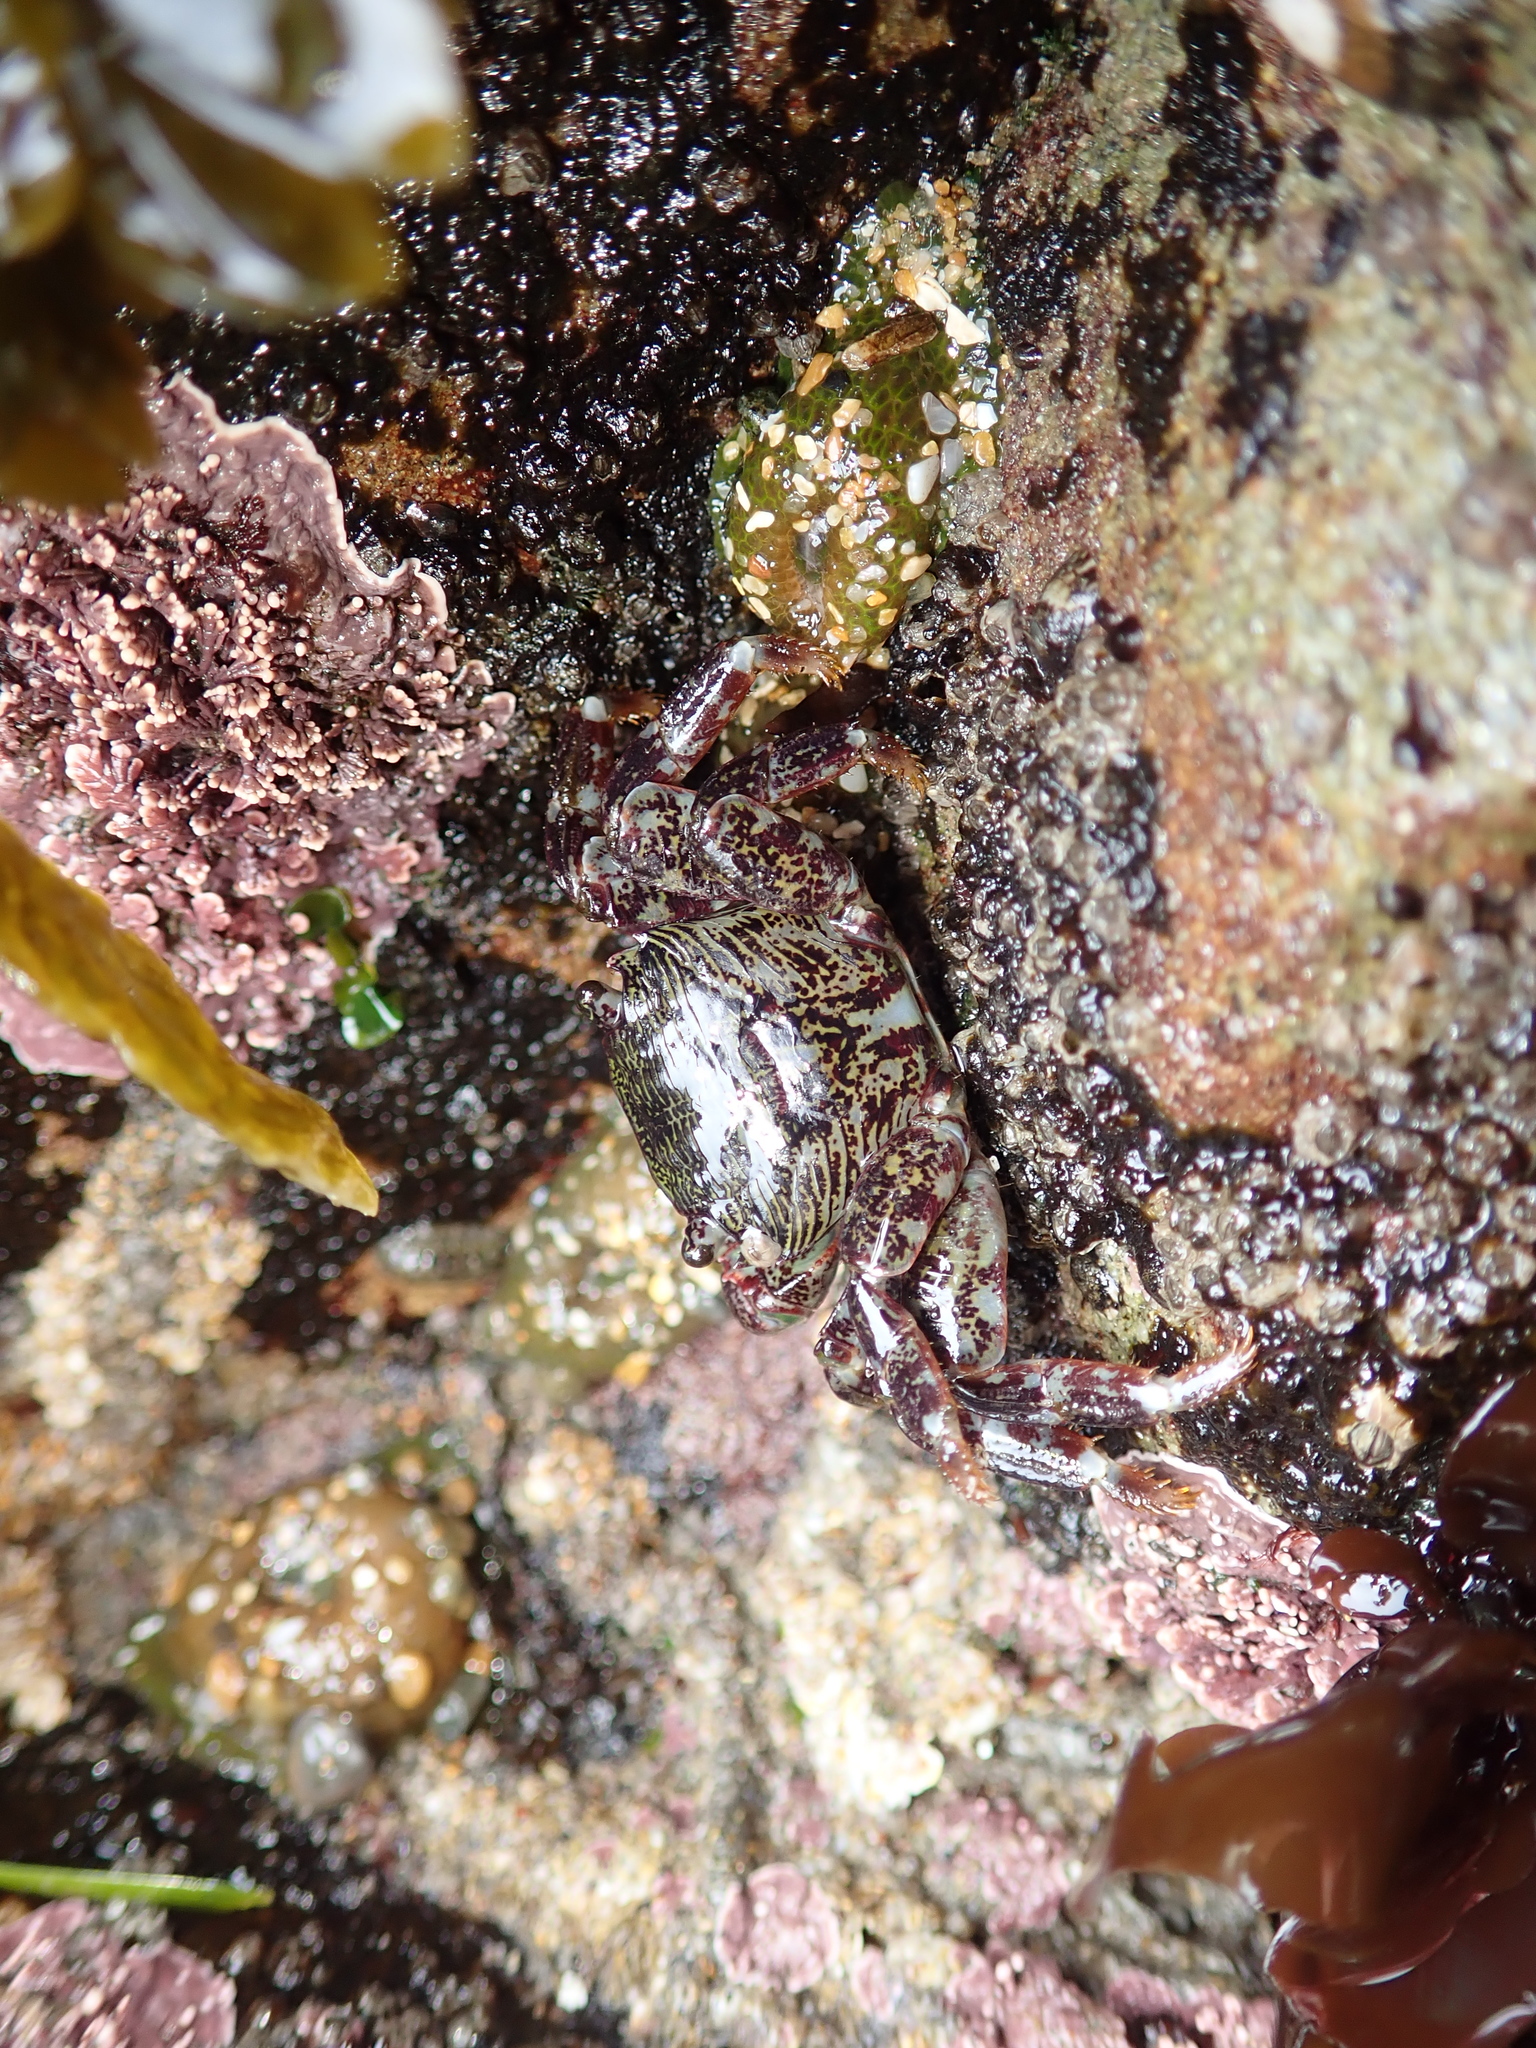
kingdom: Animalia
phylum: Arthropoda
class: Malacostraca
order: Decapoda
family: Grapsidae
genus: Pachygrapsus
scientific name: Pachygrapsus crassipes
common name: Striped shore crab
